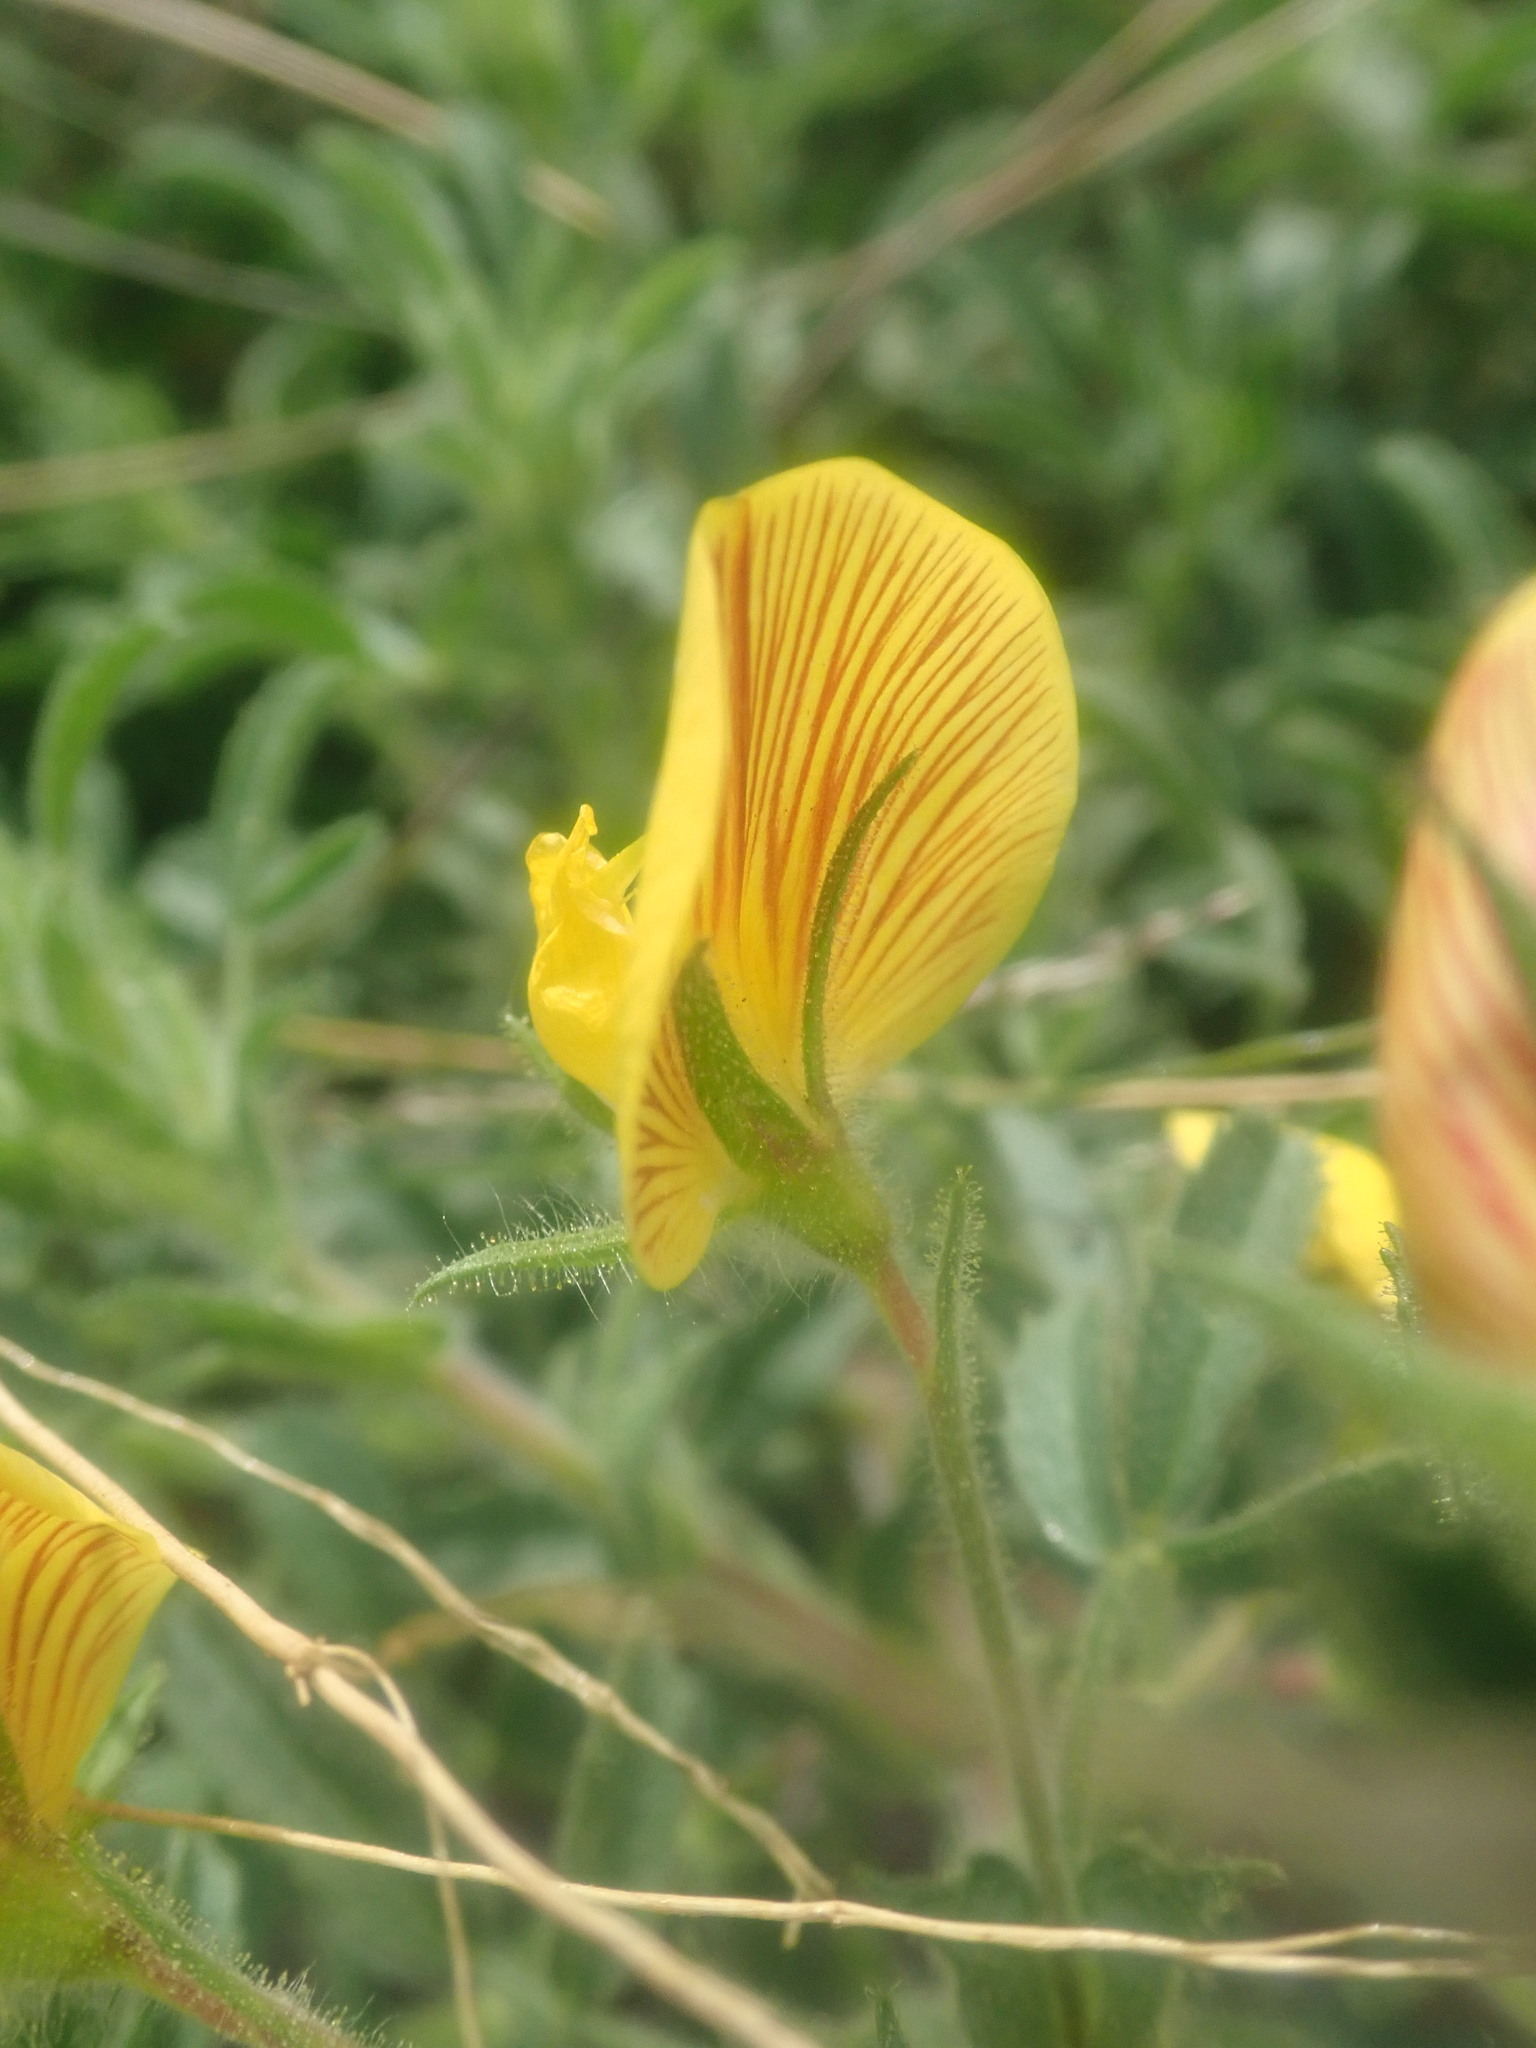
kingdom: Plantae
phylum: Tracheophyta
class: Magnoliopsida
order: Fabales
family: Fabaceae
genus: Ononis
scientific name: Ononis natrix
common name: Yellow restharrow
